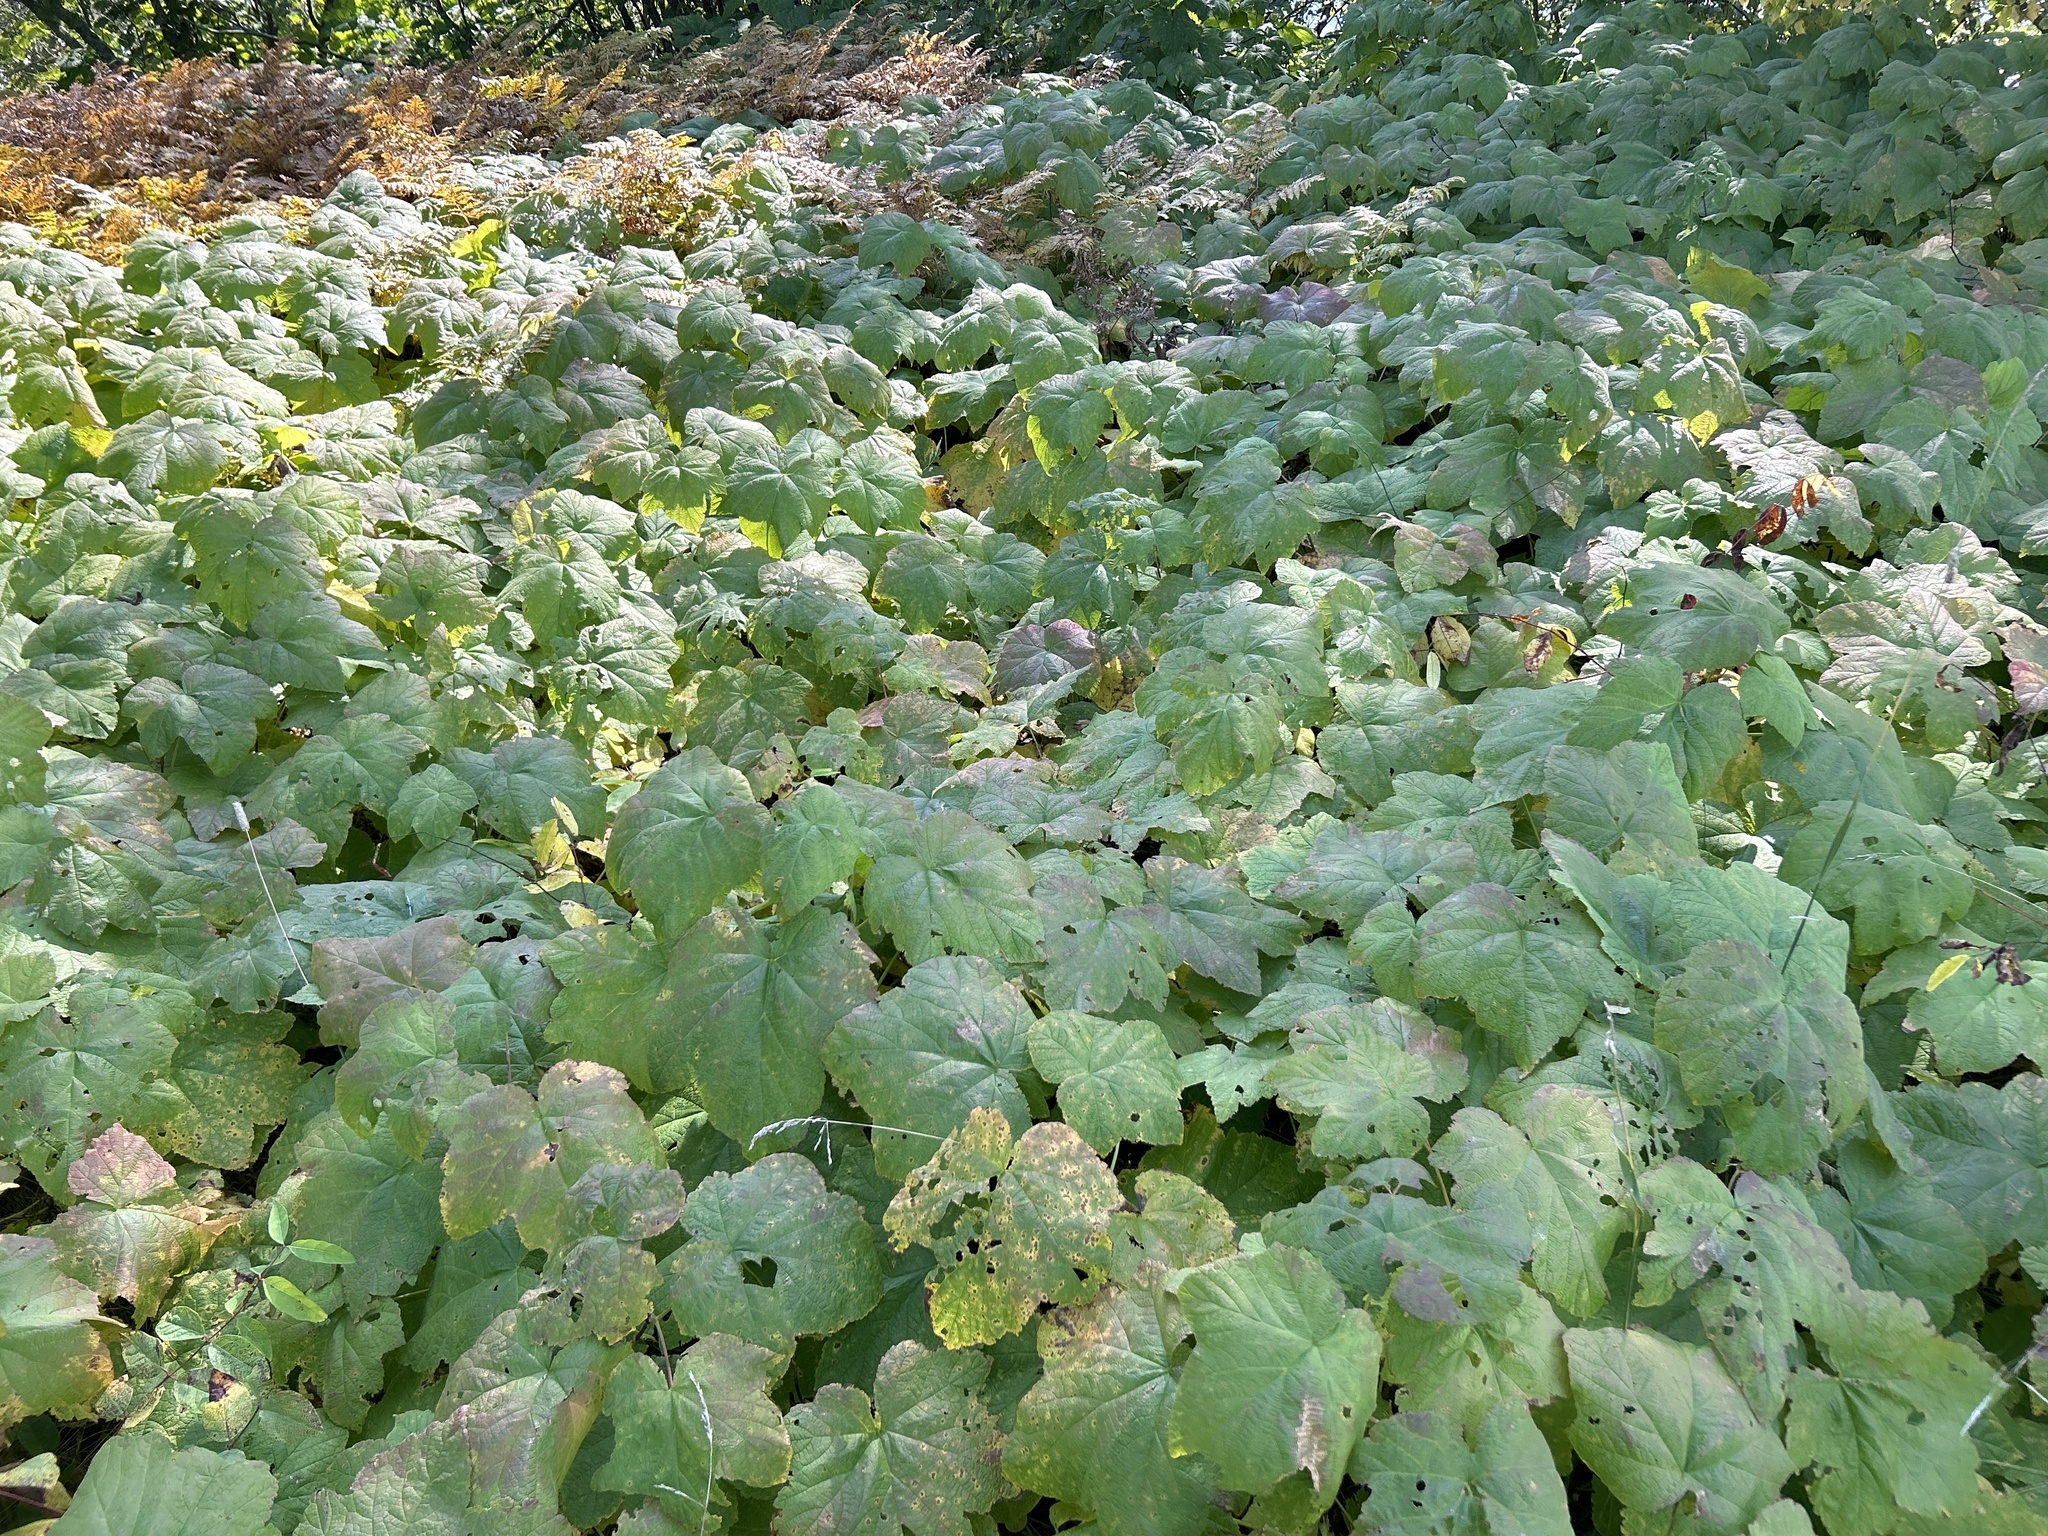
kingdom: Plantae
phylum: Tracheophyta
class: Magnoliopsida
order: Rosales
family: Rosaceae
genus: Rubus
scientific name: Rubus parviflorus
